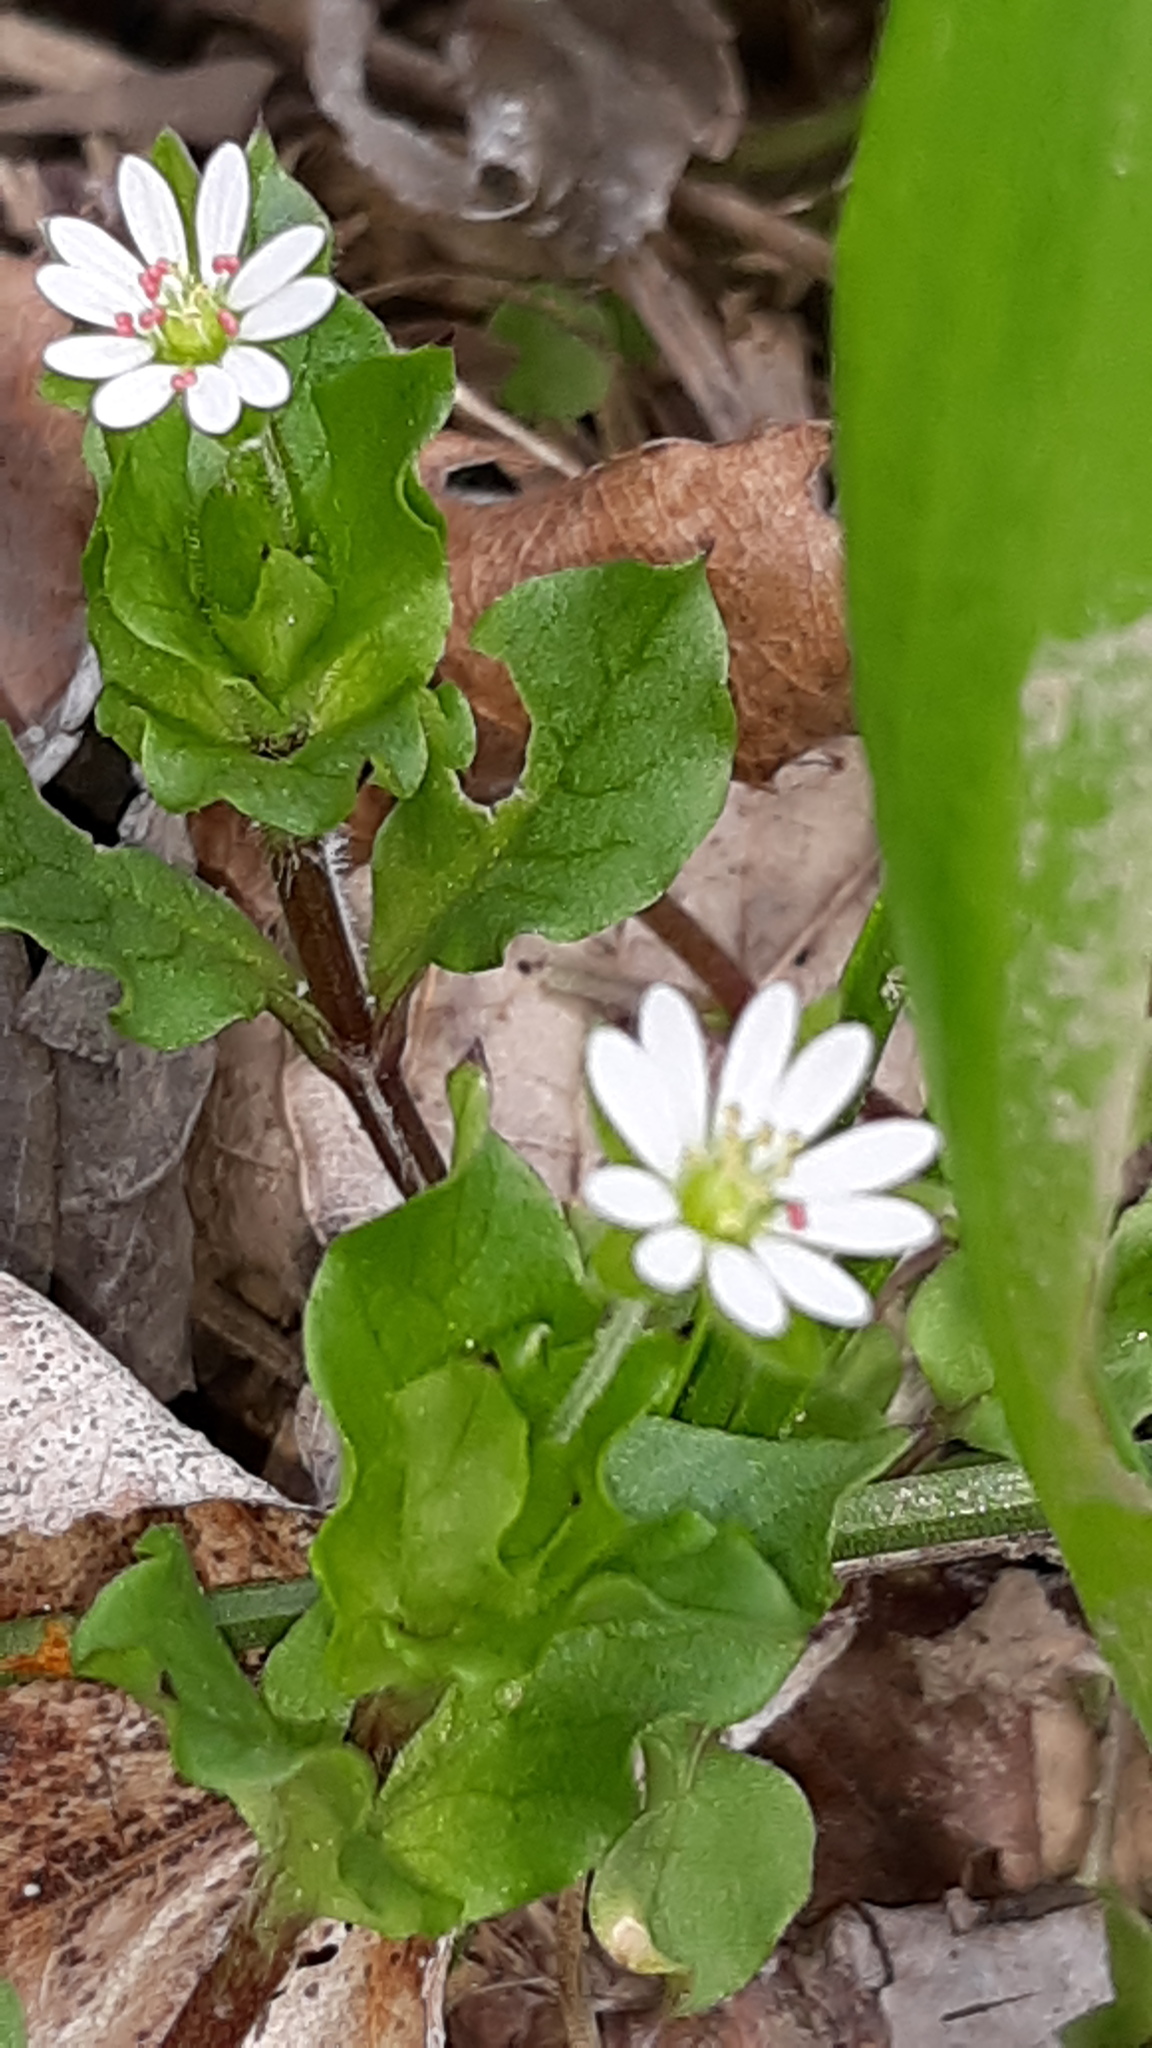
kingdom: Plantae
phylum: Tracheophyta
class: Magnoliopsida
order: Caryophyllales
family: Caryophyllaceae
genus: Stellaria
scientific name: Stellaria media
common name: Common chickweed
